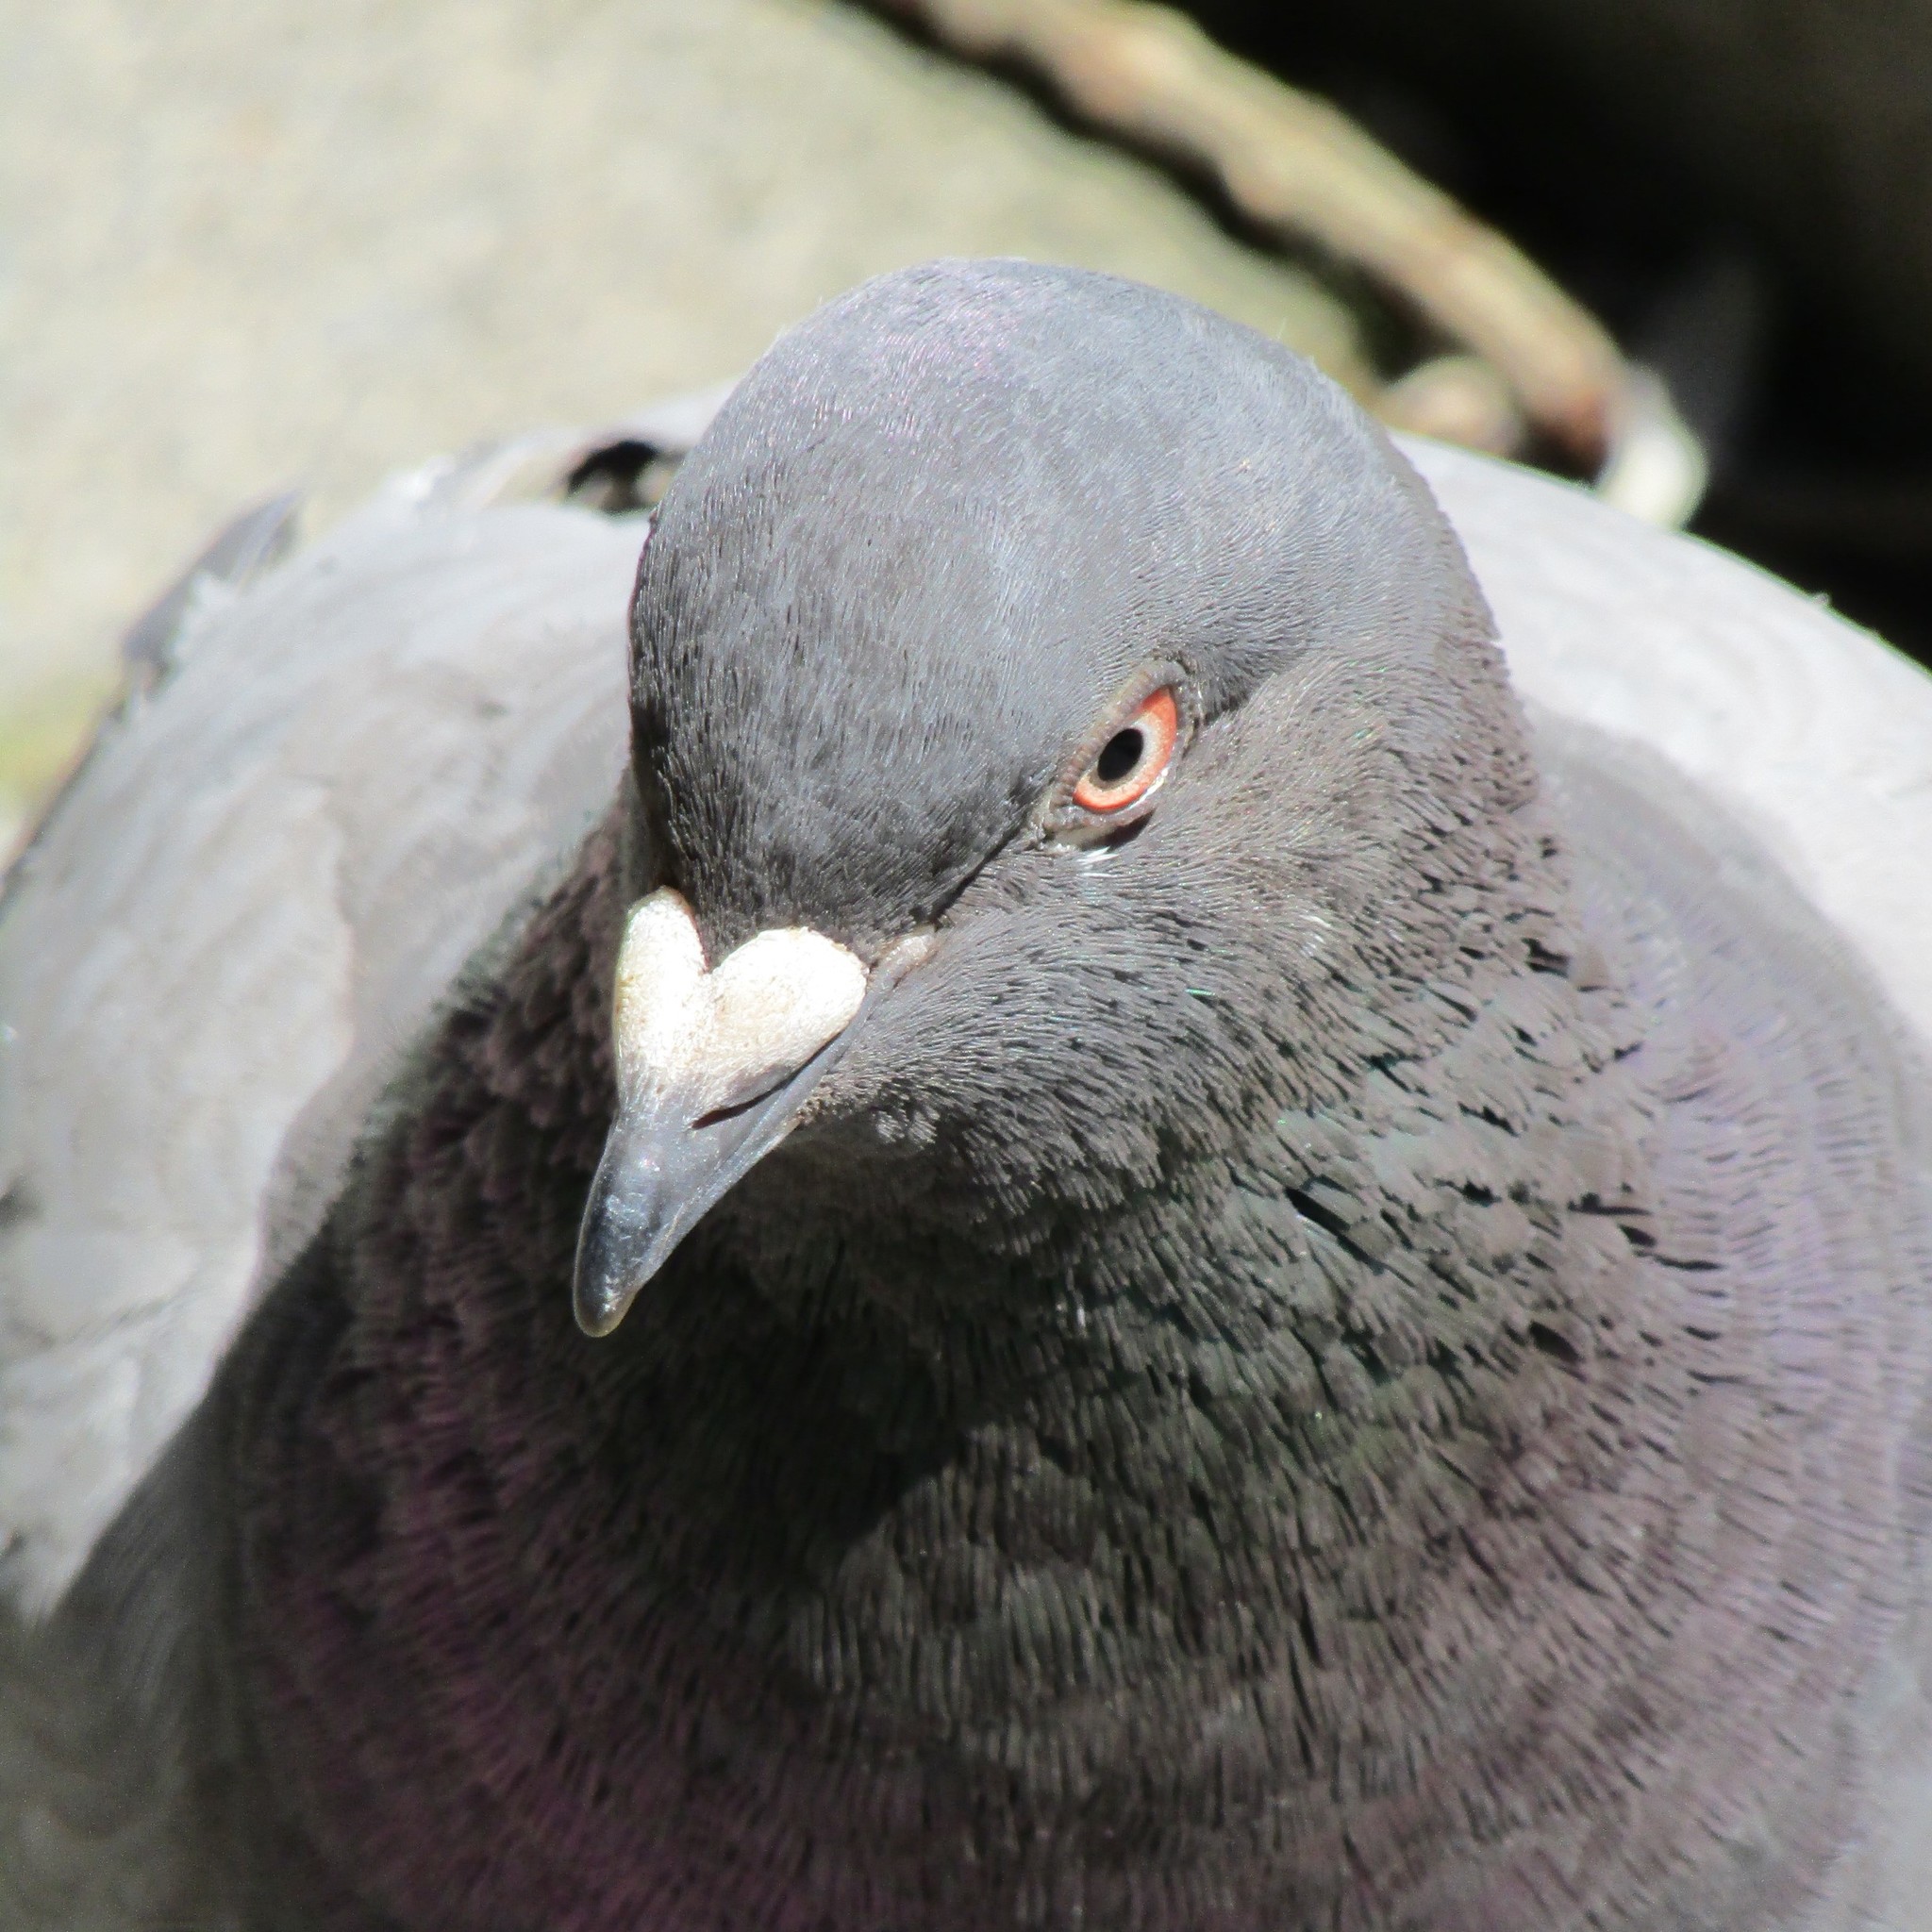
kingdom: Animalia
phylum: Chordata
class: Aves
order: Columbiformes
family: Columbidae
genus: Columba
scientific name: Columba livia
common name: Rock pigeon
